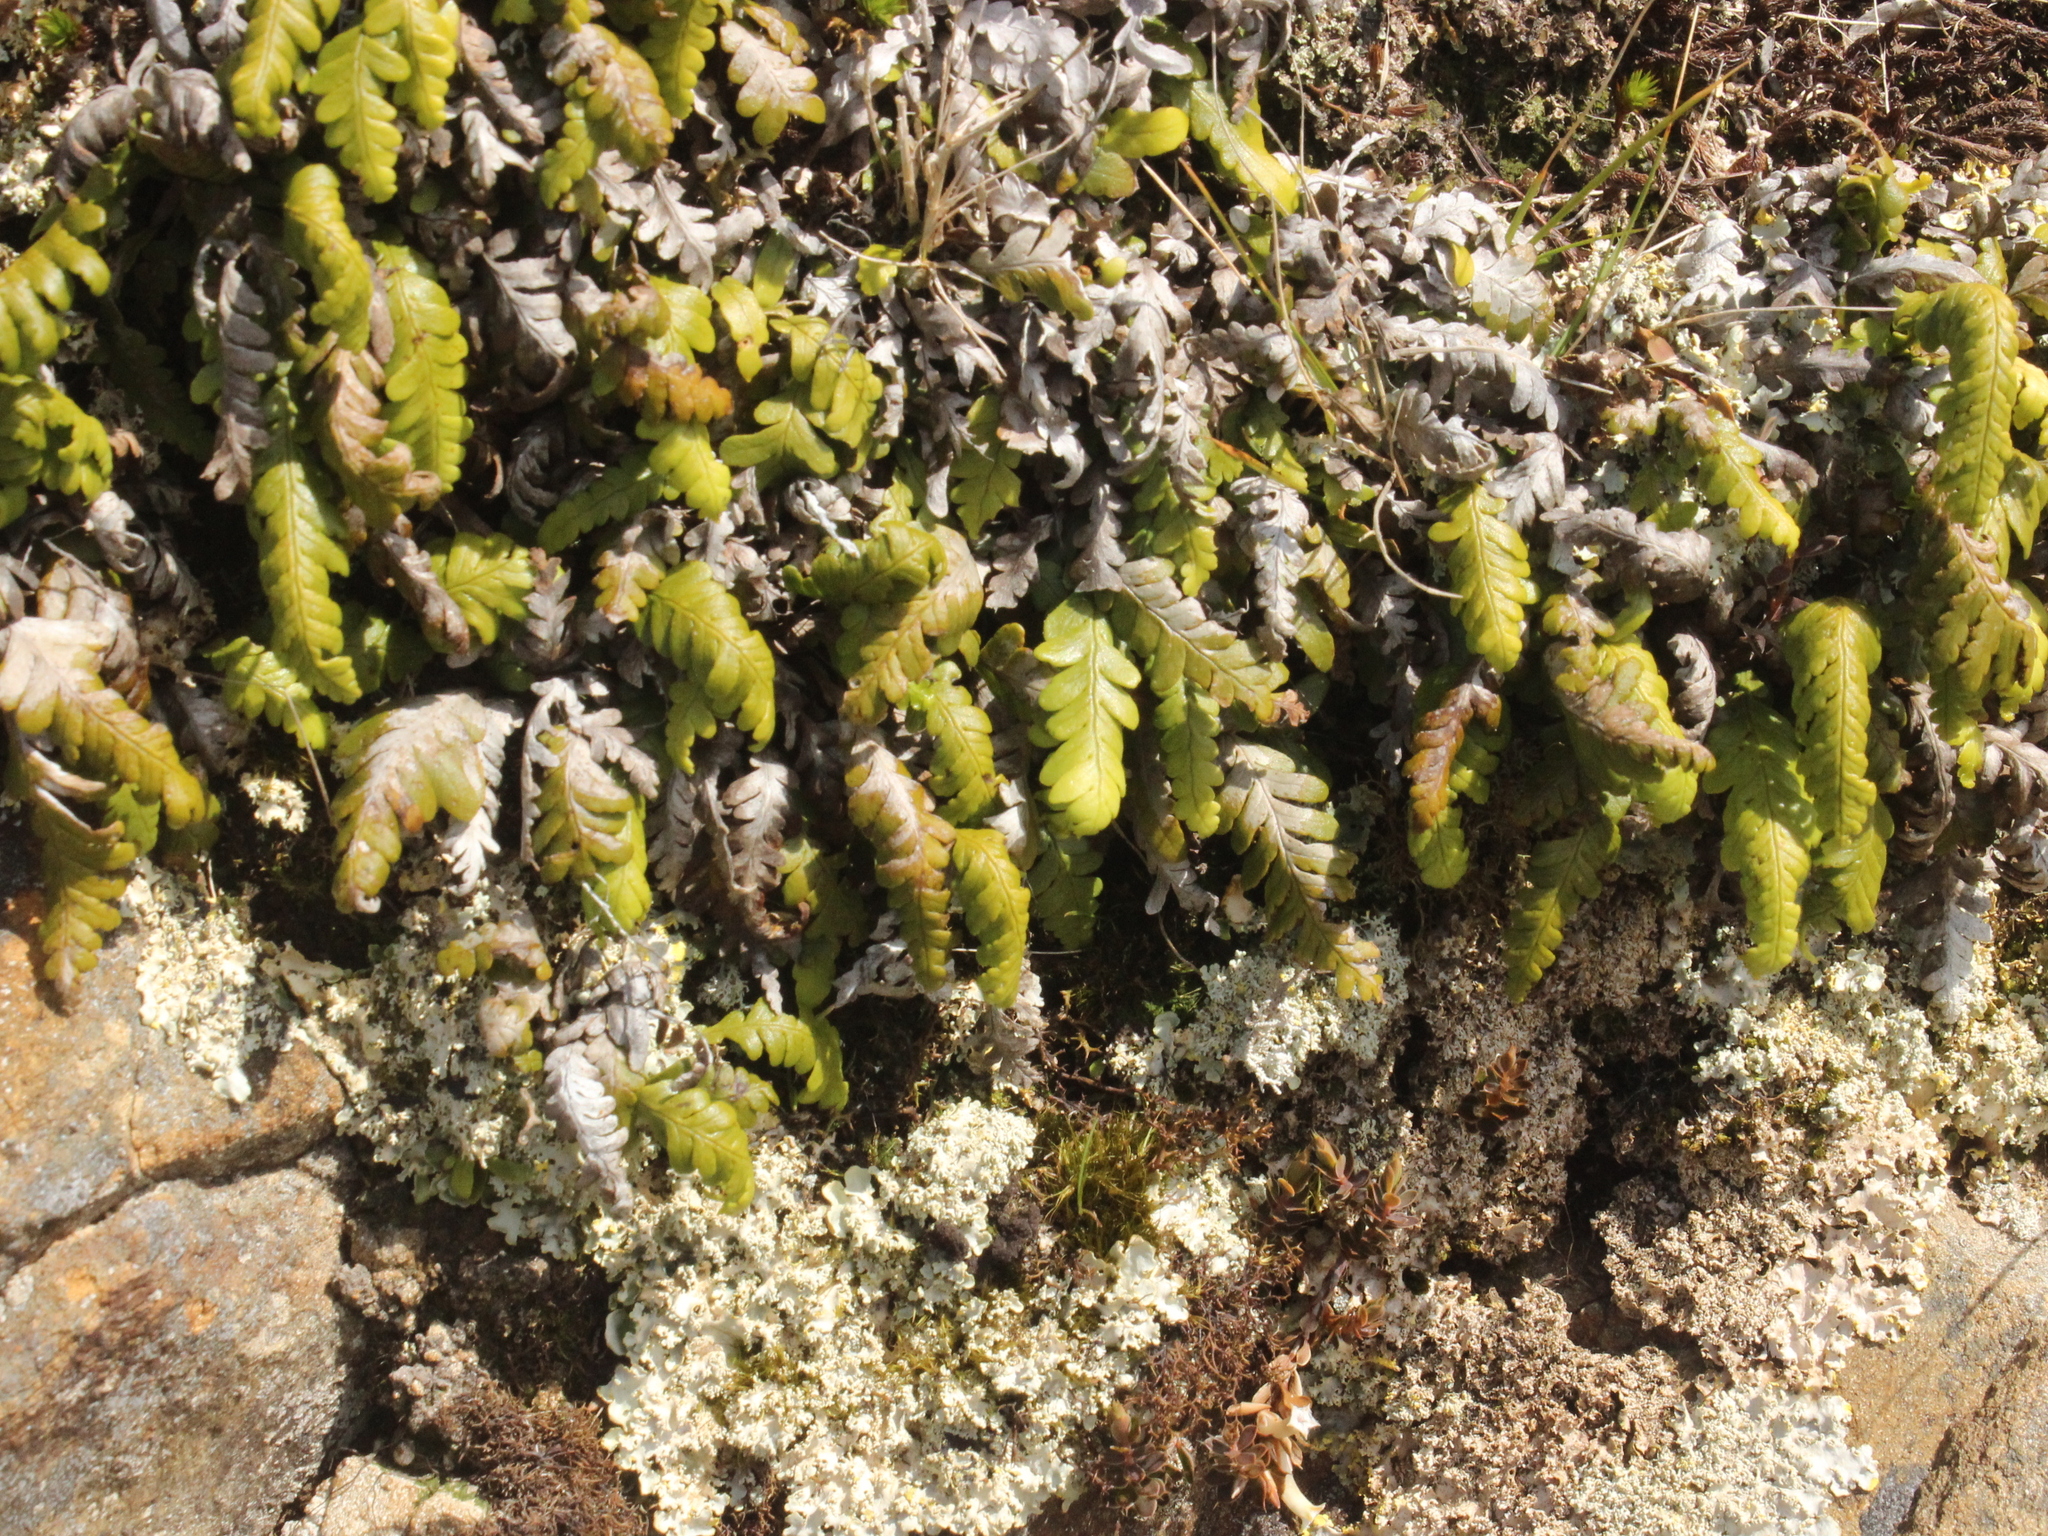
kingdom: Plantae
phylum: Tracheophyta
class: Polypodiopsida
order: Polypodiales
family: Polypodiaceae
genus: Notogrammitis
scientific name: Notogrammitis heterophylla
